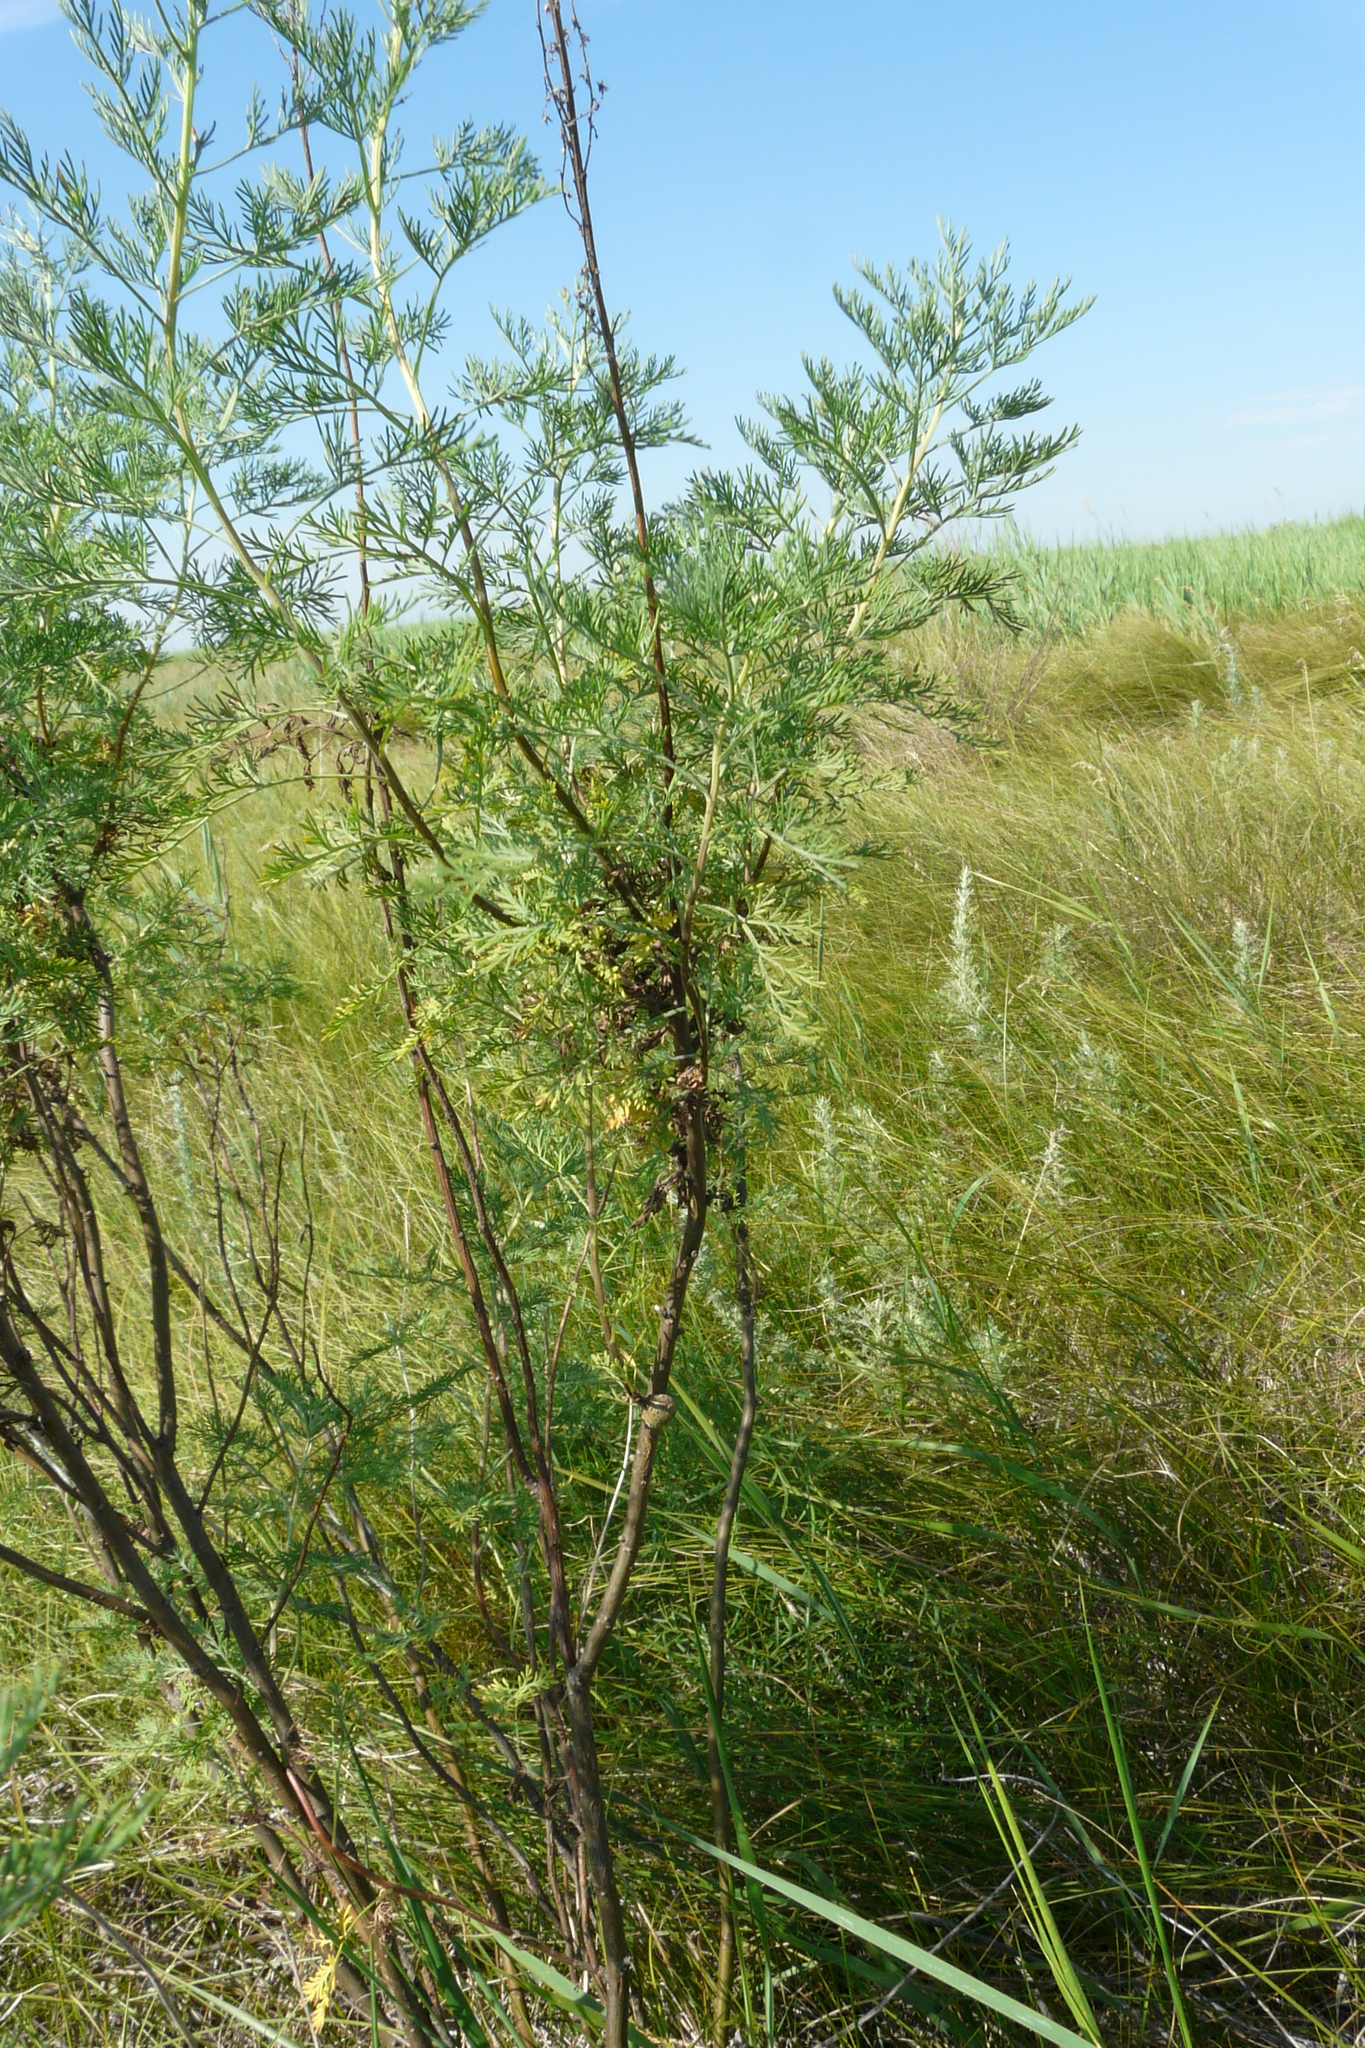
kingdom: Plantae
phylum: Tracheophyta
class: Magnoliopsida
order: Asterales
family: Asteraceae
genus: Artemisia
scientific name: Artemisia abrotanum
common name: Southernwood
